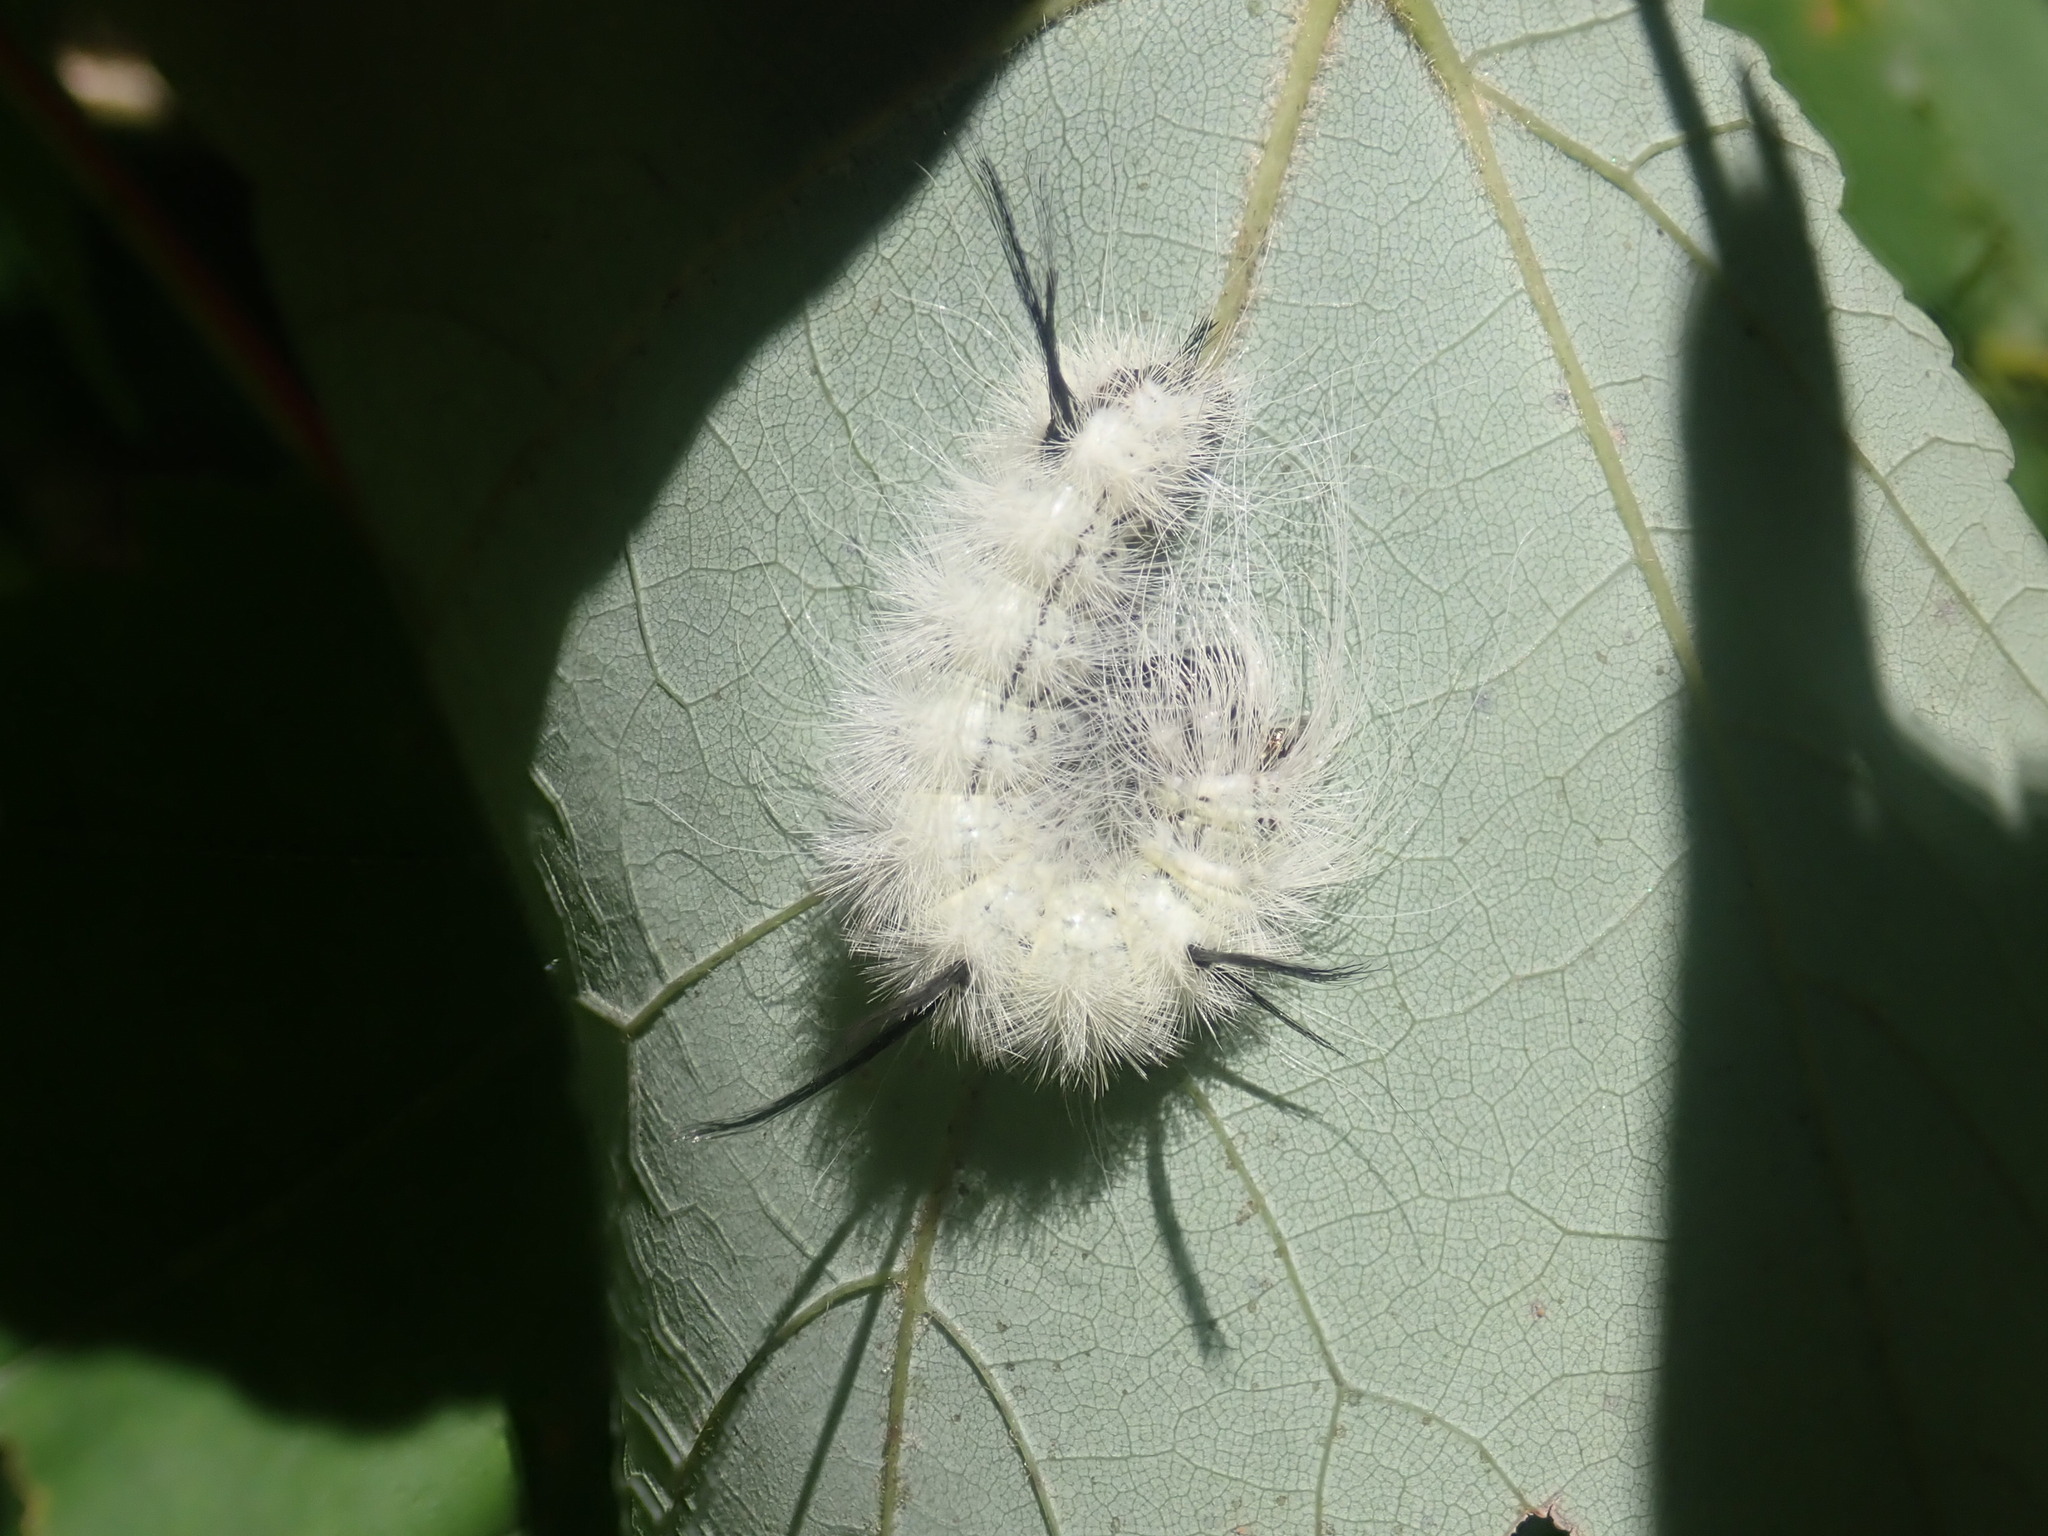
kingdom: Animalia
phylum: Arthropoda
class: Insecta
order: Lepidoptera
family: Noctuidae
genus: Acronicta
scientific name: Acronicta americana
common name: American dagger
